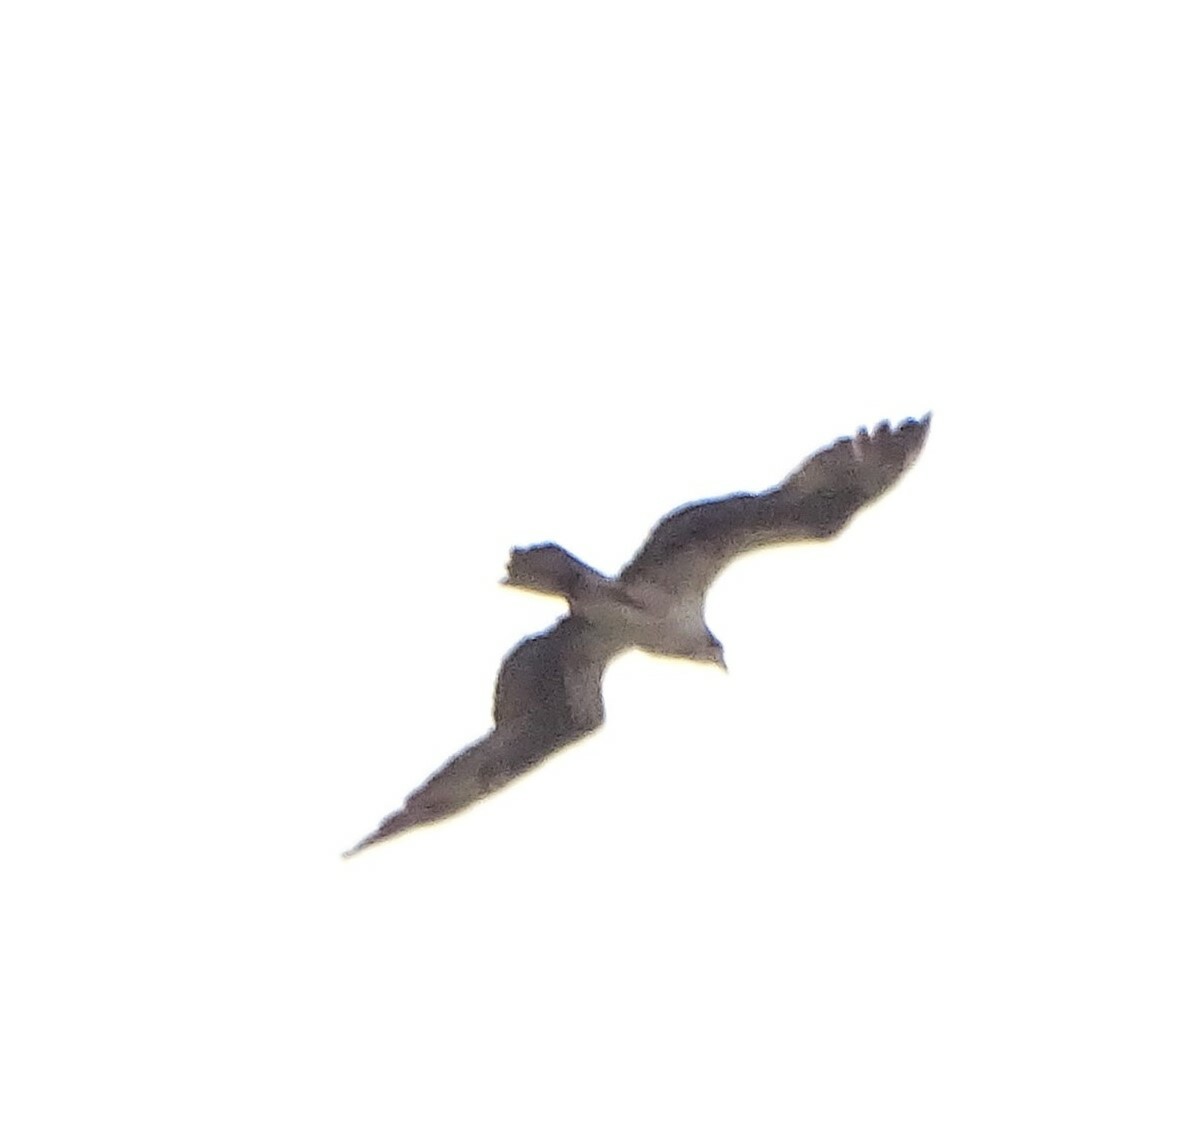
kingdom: Animalia
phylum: Chordata
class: Aves
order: Accipitriformes
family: Pandionidae
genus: Pandion
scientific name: Pandion haliaetus
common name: Osprey
